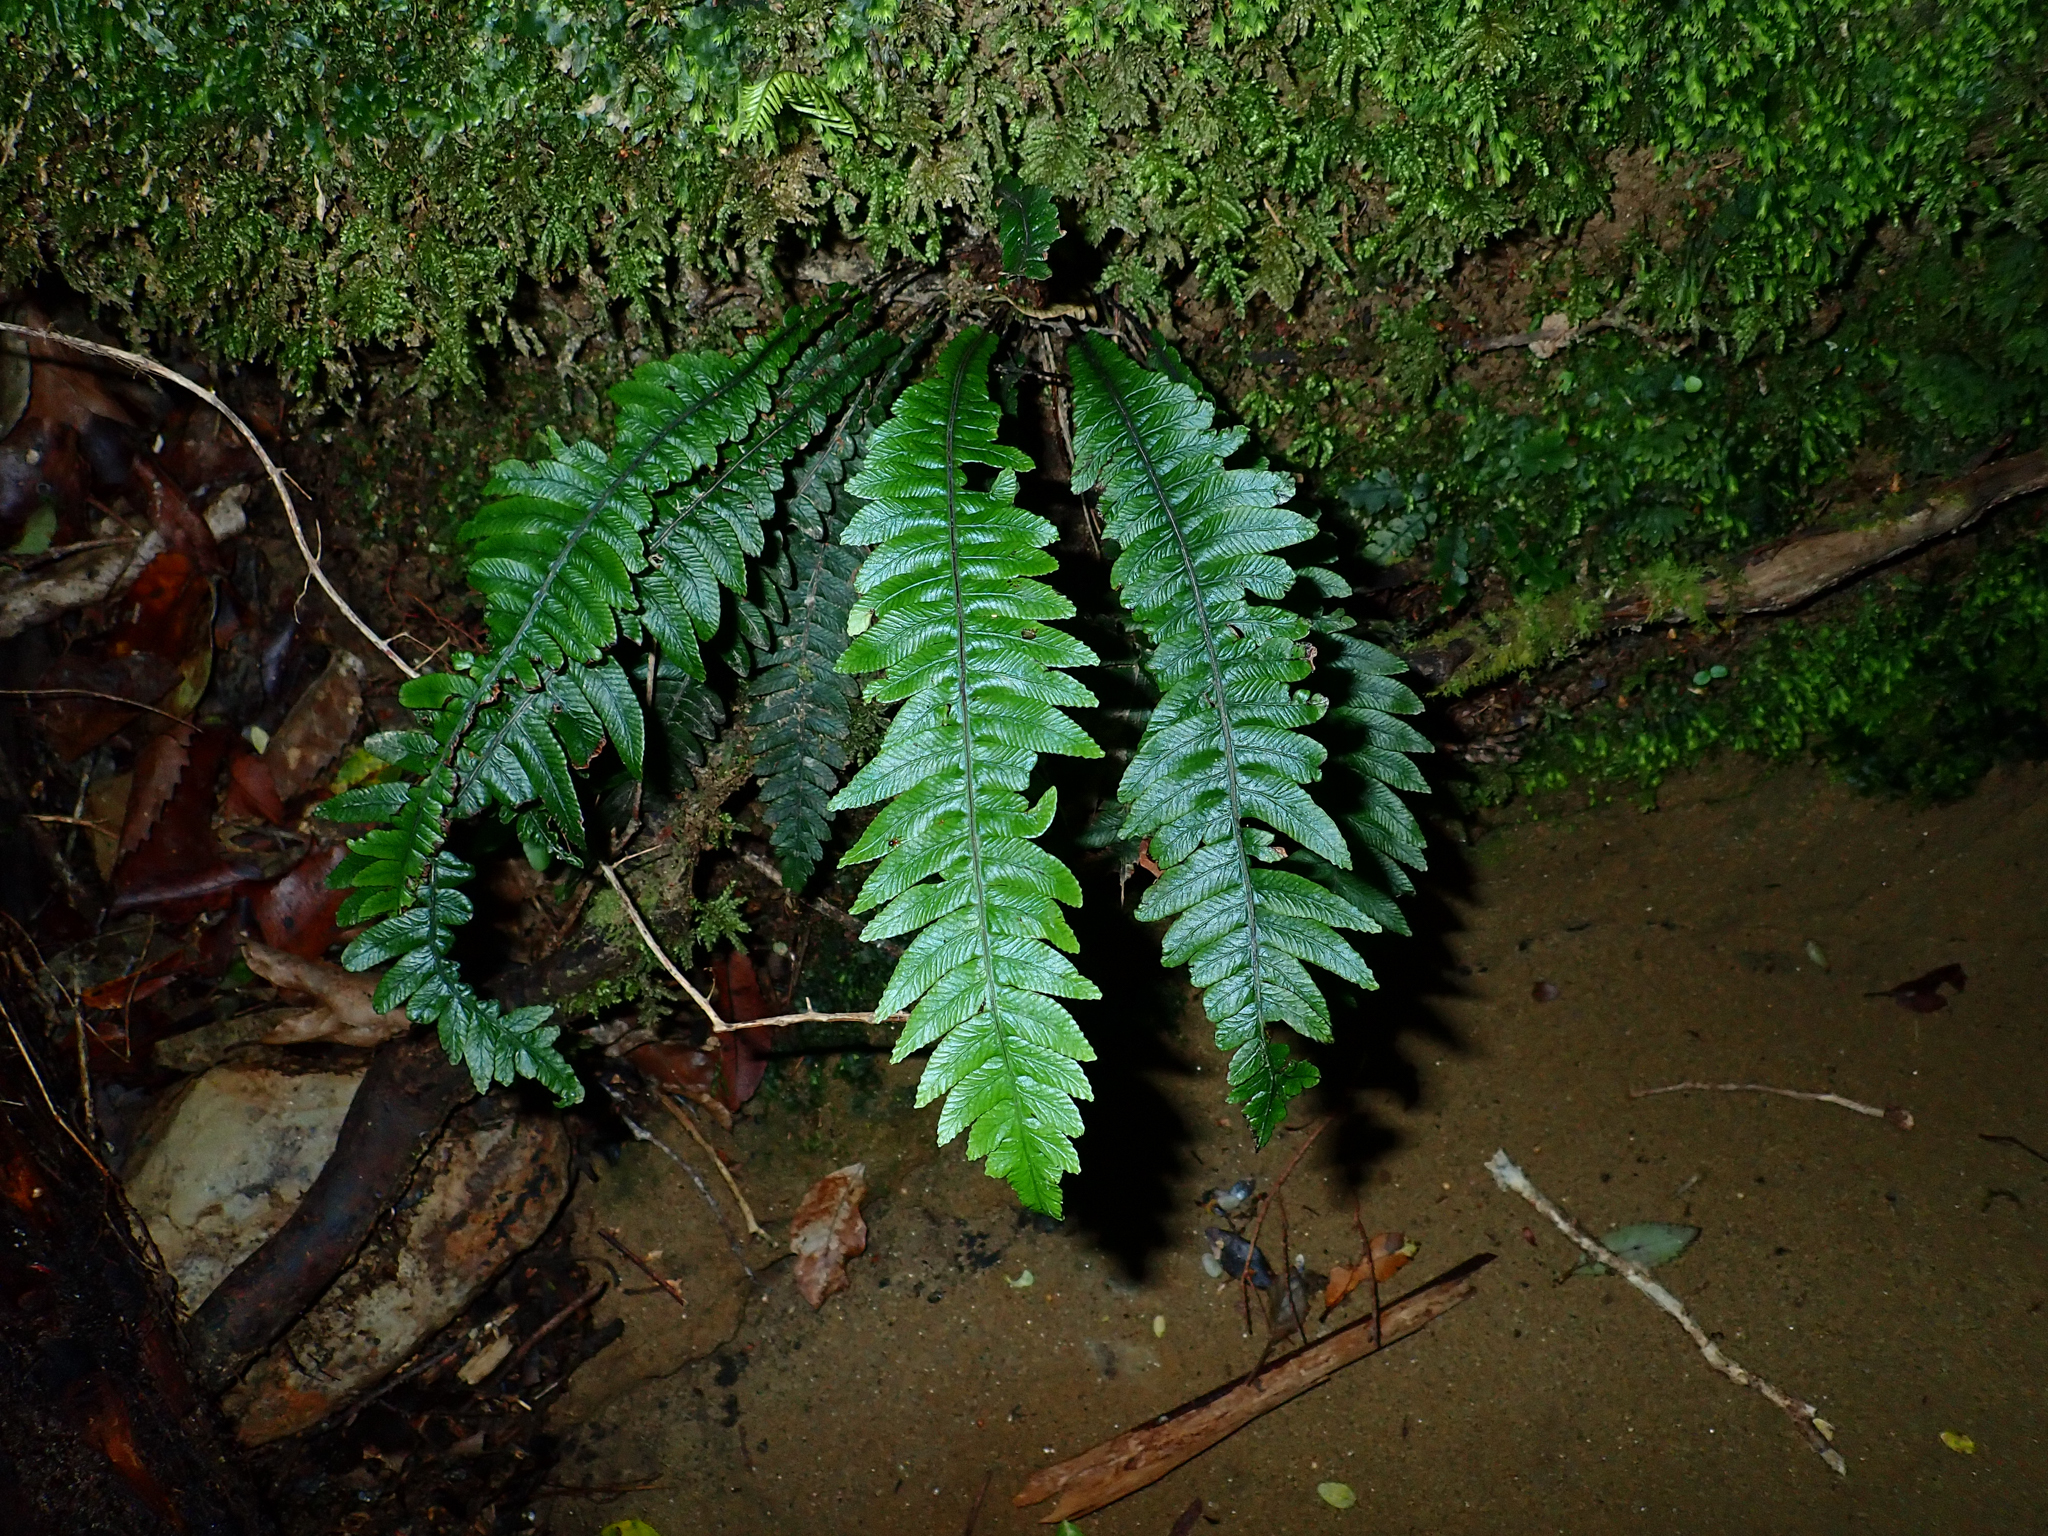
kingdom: Plantae
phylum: Tracheophyta
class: Polypodiopsida
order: Polypodiales
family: Blechnaceae
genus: Austroblechnum
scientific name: Austroblechnum lanceolatum
